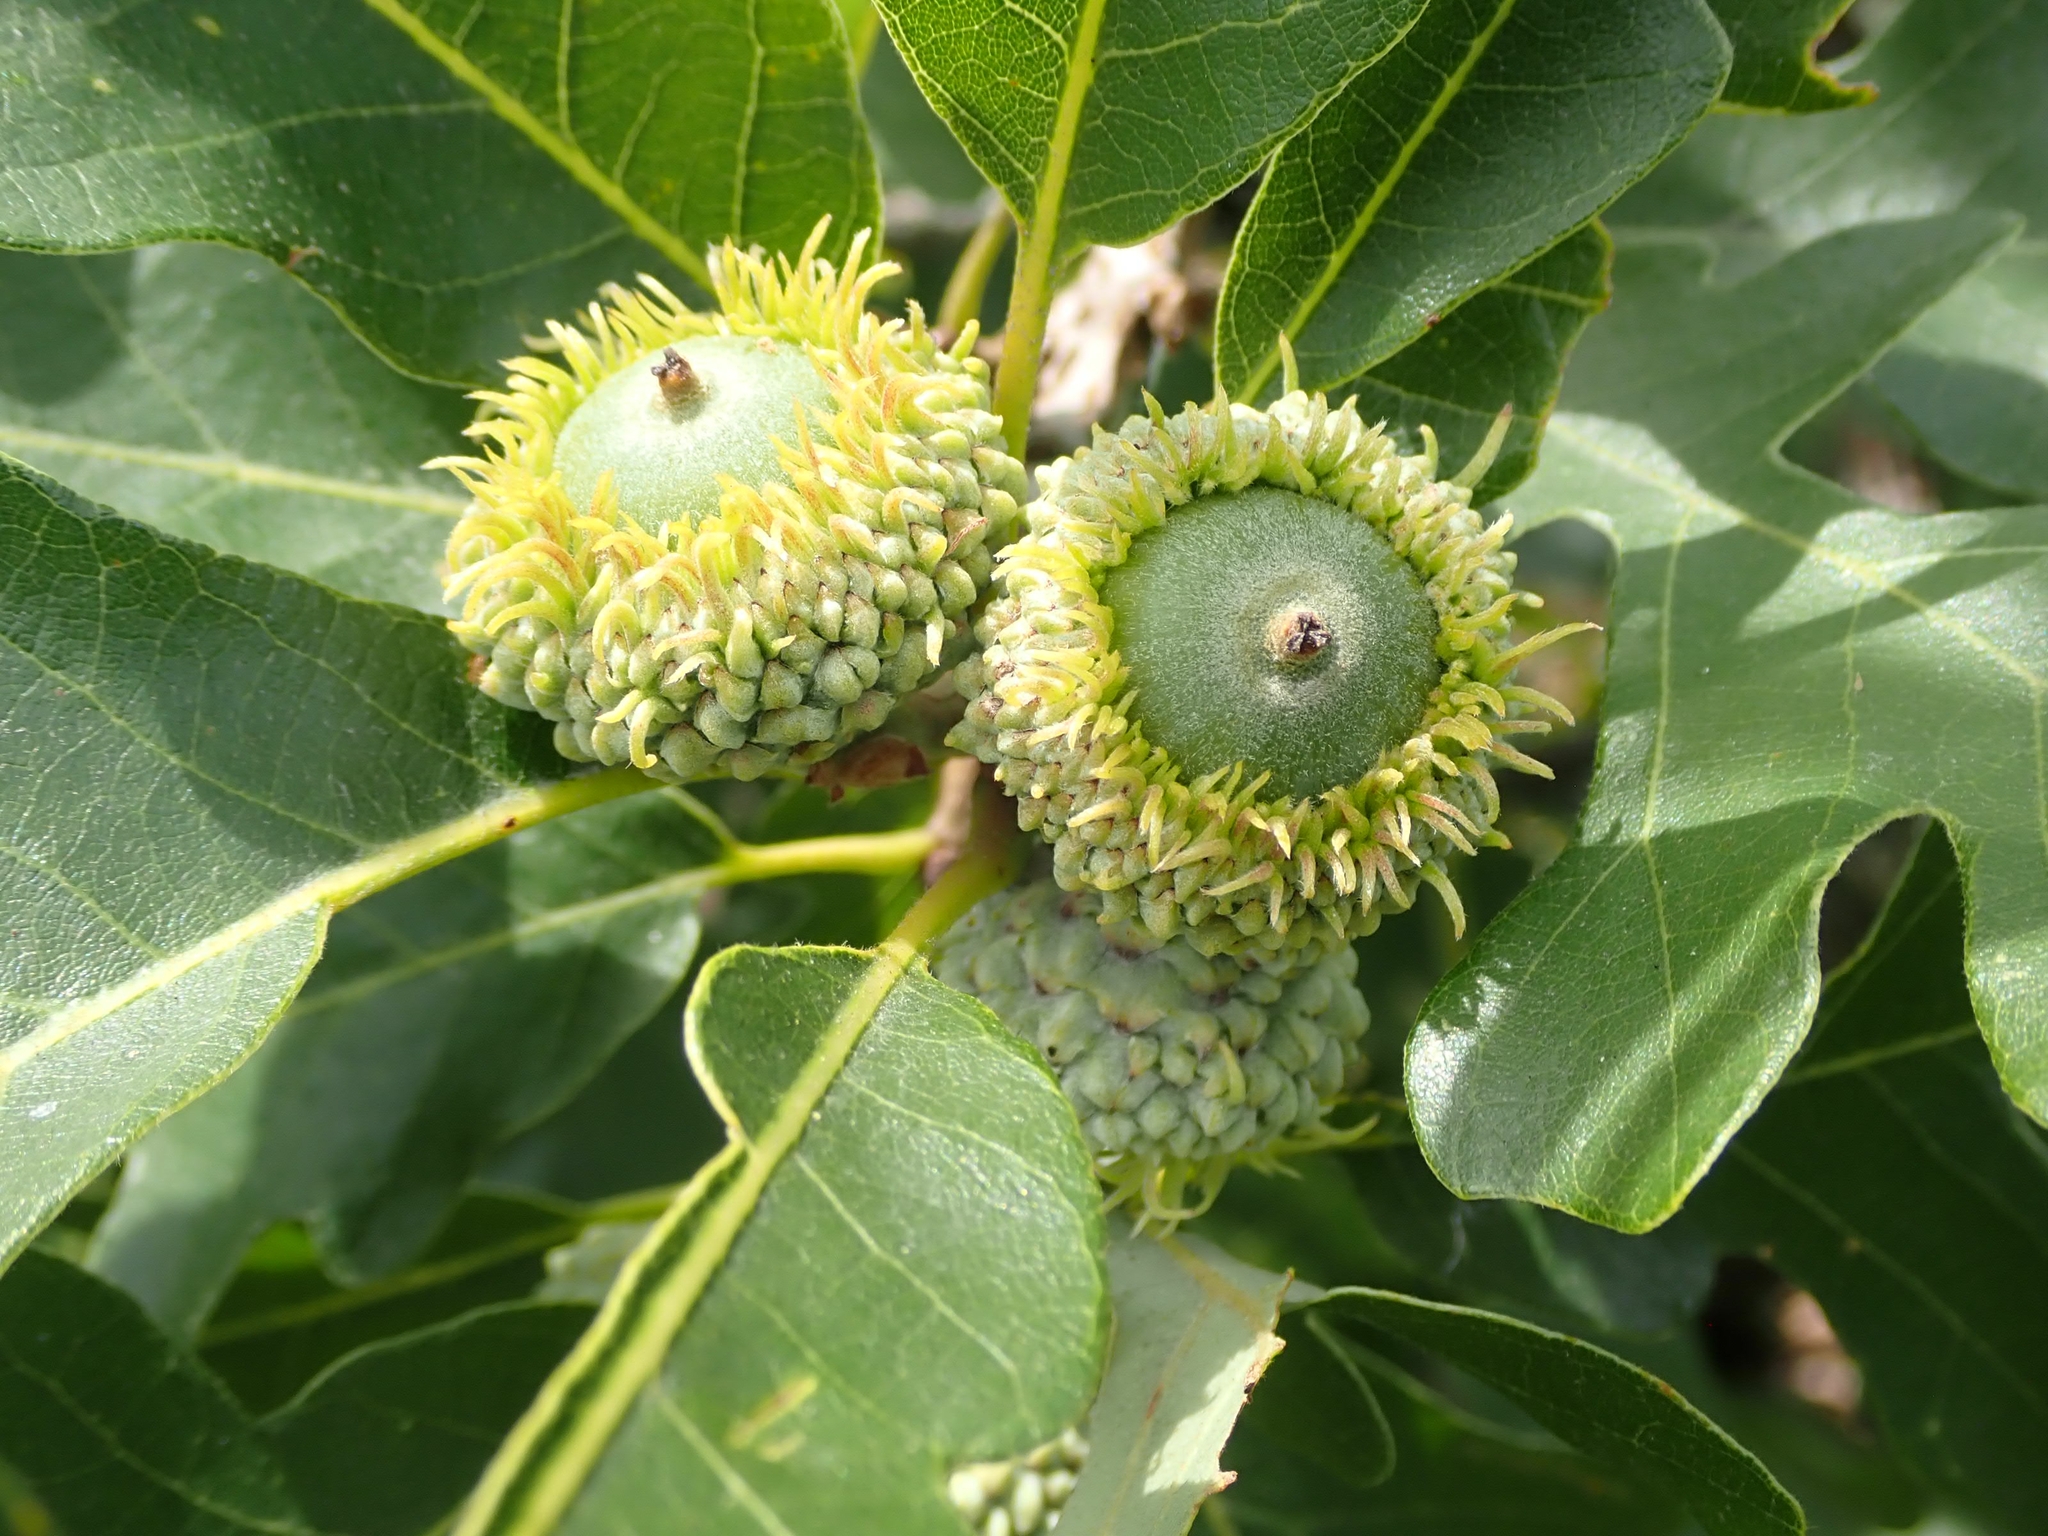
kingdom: Plantae
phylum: Tracheophyta
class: Magnoliopsida
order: Fagales
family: Fagaceae
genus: Quercus
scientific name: Quercus macrocarpa
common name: Bur oak
